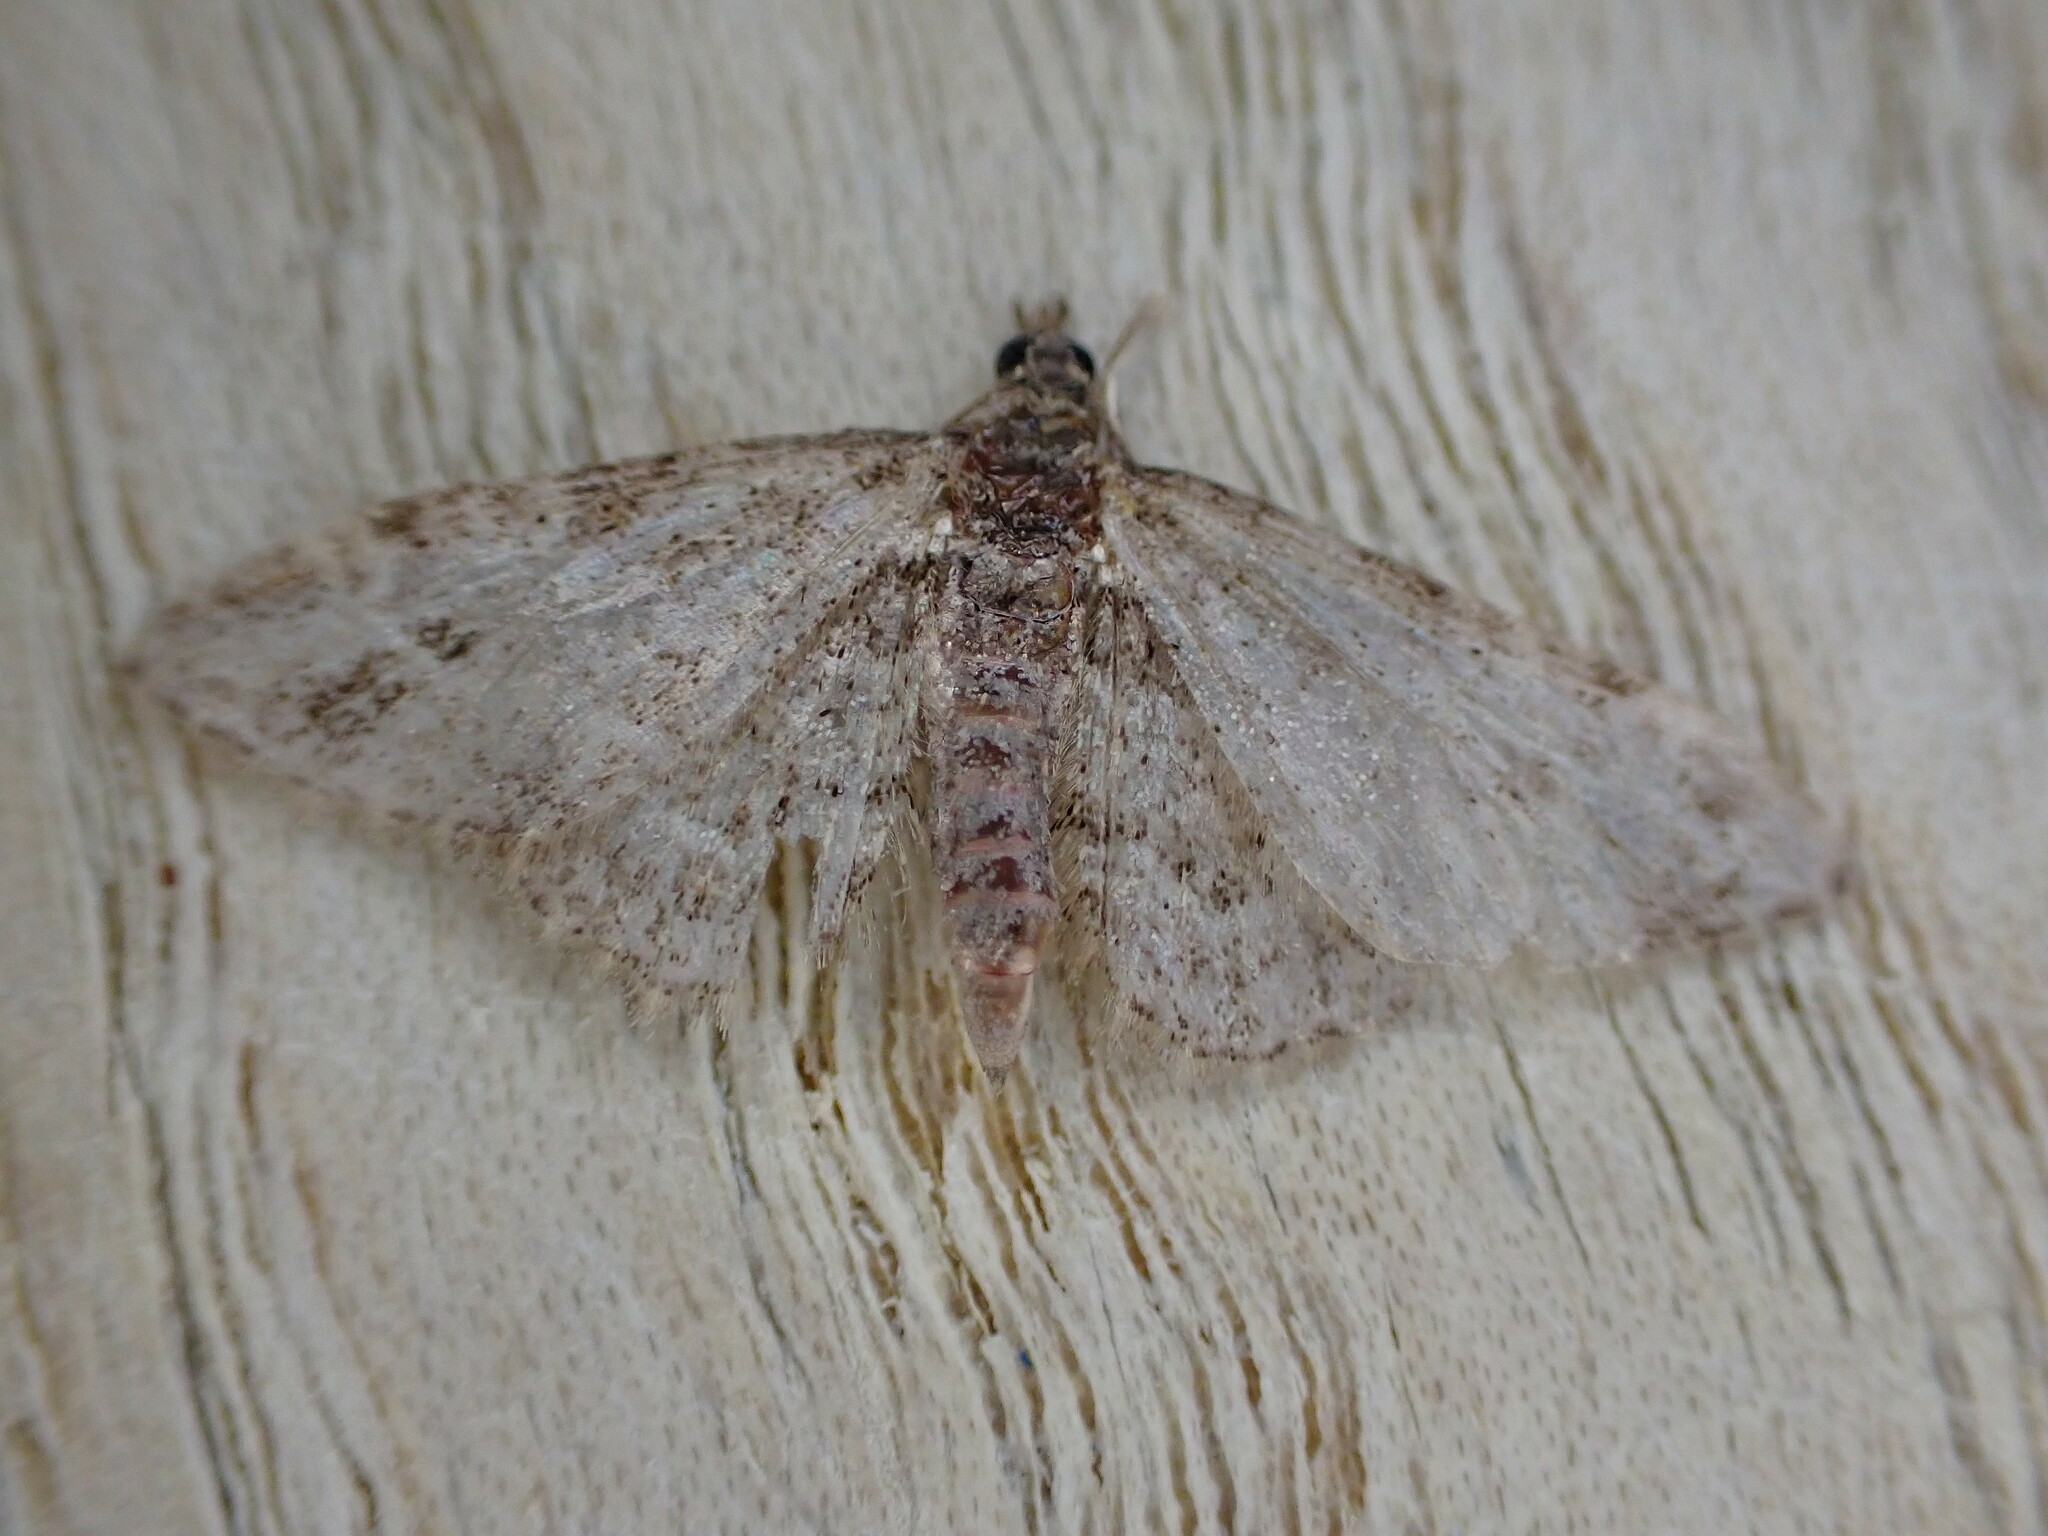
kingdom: Animalia
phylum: Arthropoda
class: Insecta
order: Lepidoptera
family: Geometridae
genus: Gymnoscelis
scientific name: Gymnoscelis rufifasciata
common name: Double-striped pug
